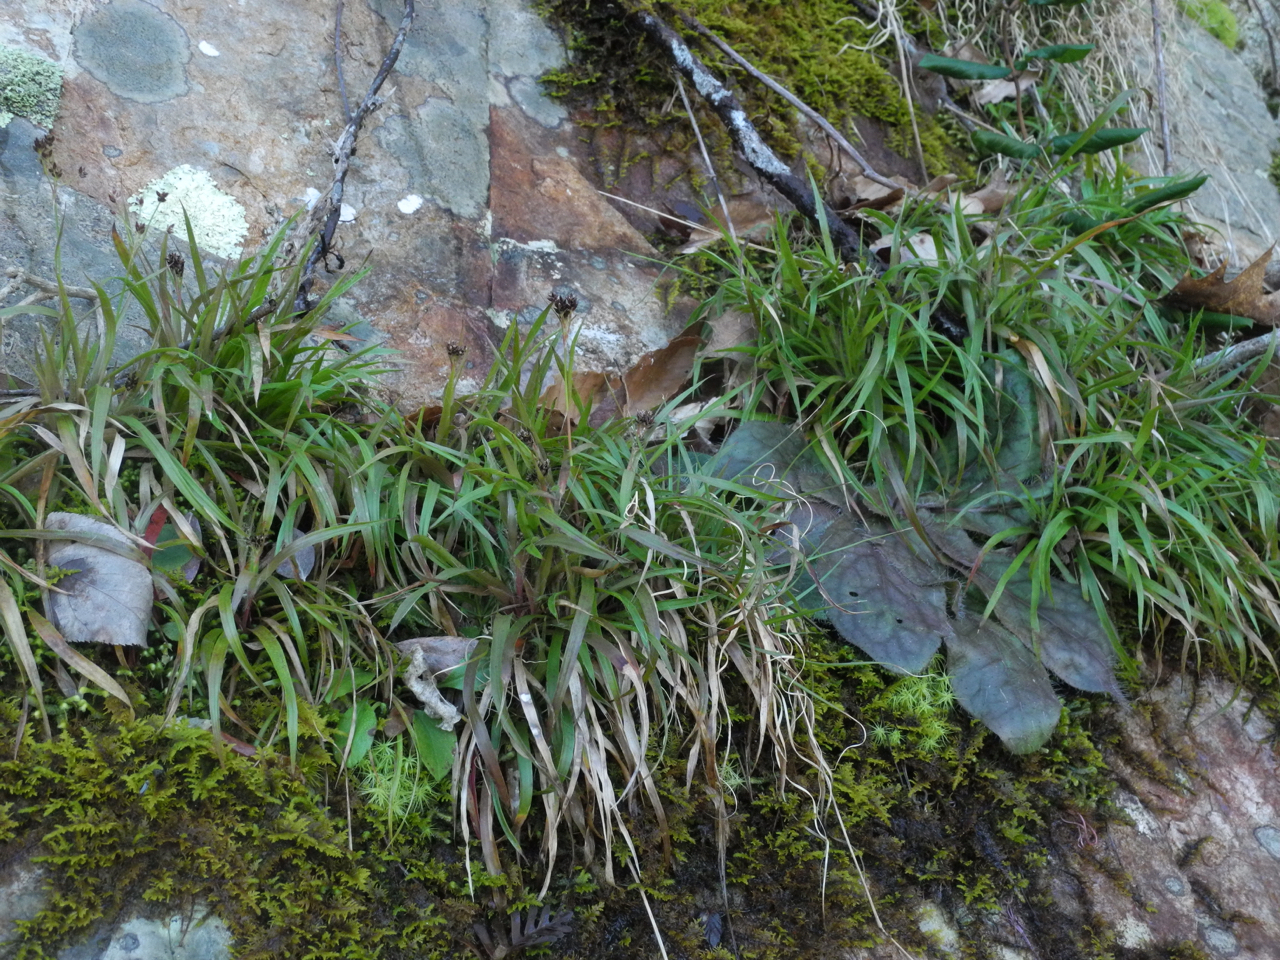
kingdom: Plantae
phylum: Tracheophyta
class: Liliopsida
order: Poales
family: Juncaceae
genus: Luzula
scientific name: Luzula echinata
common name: Hedgehog woodrush
